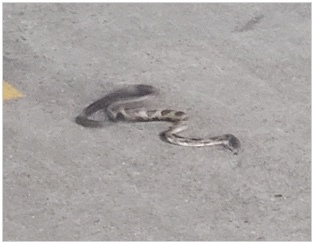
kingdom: Animalia
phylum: Chordata
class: Squamata
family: Colubridae
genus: Pantherophis
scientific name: Pantherophis spiloides
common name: Gray rat snake
